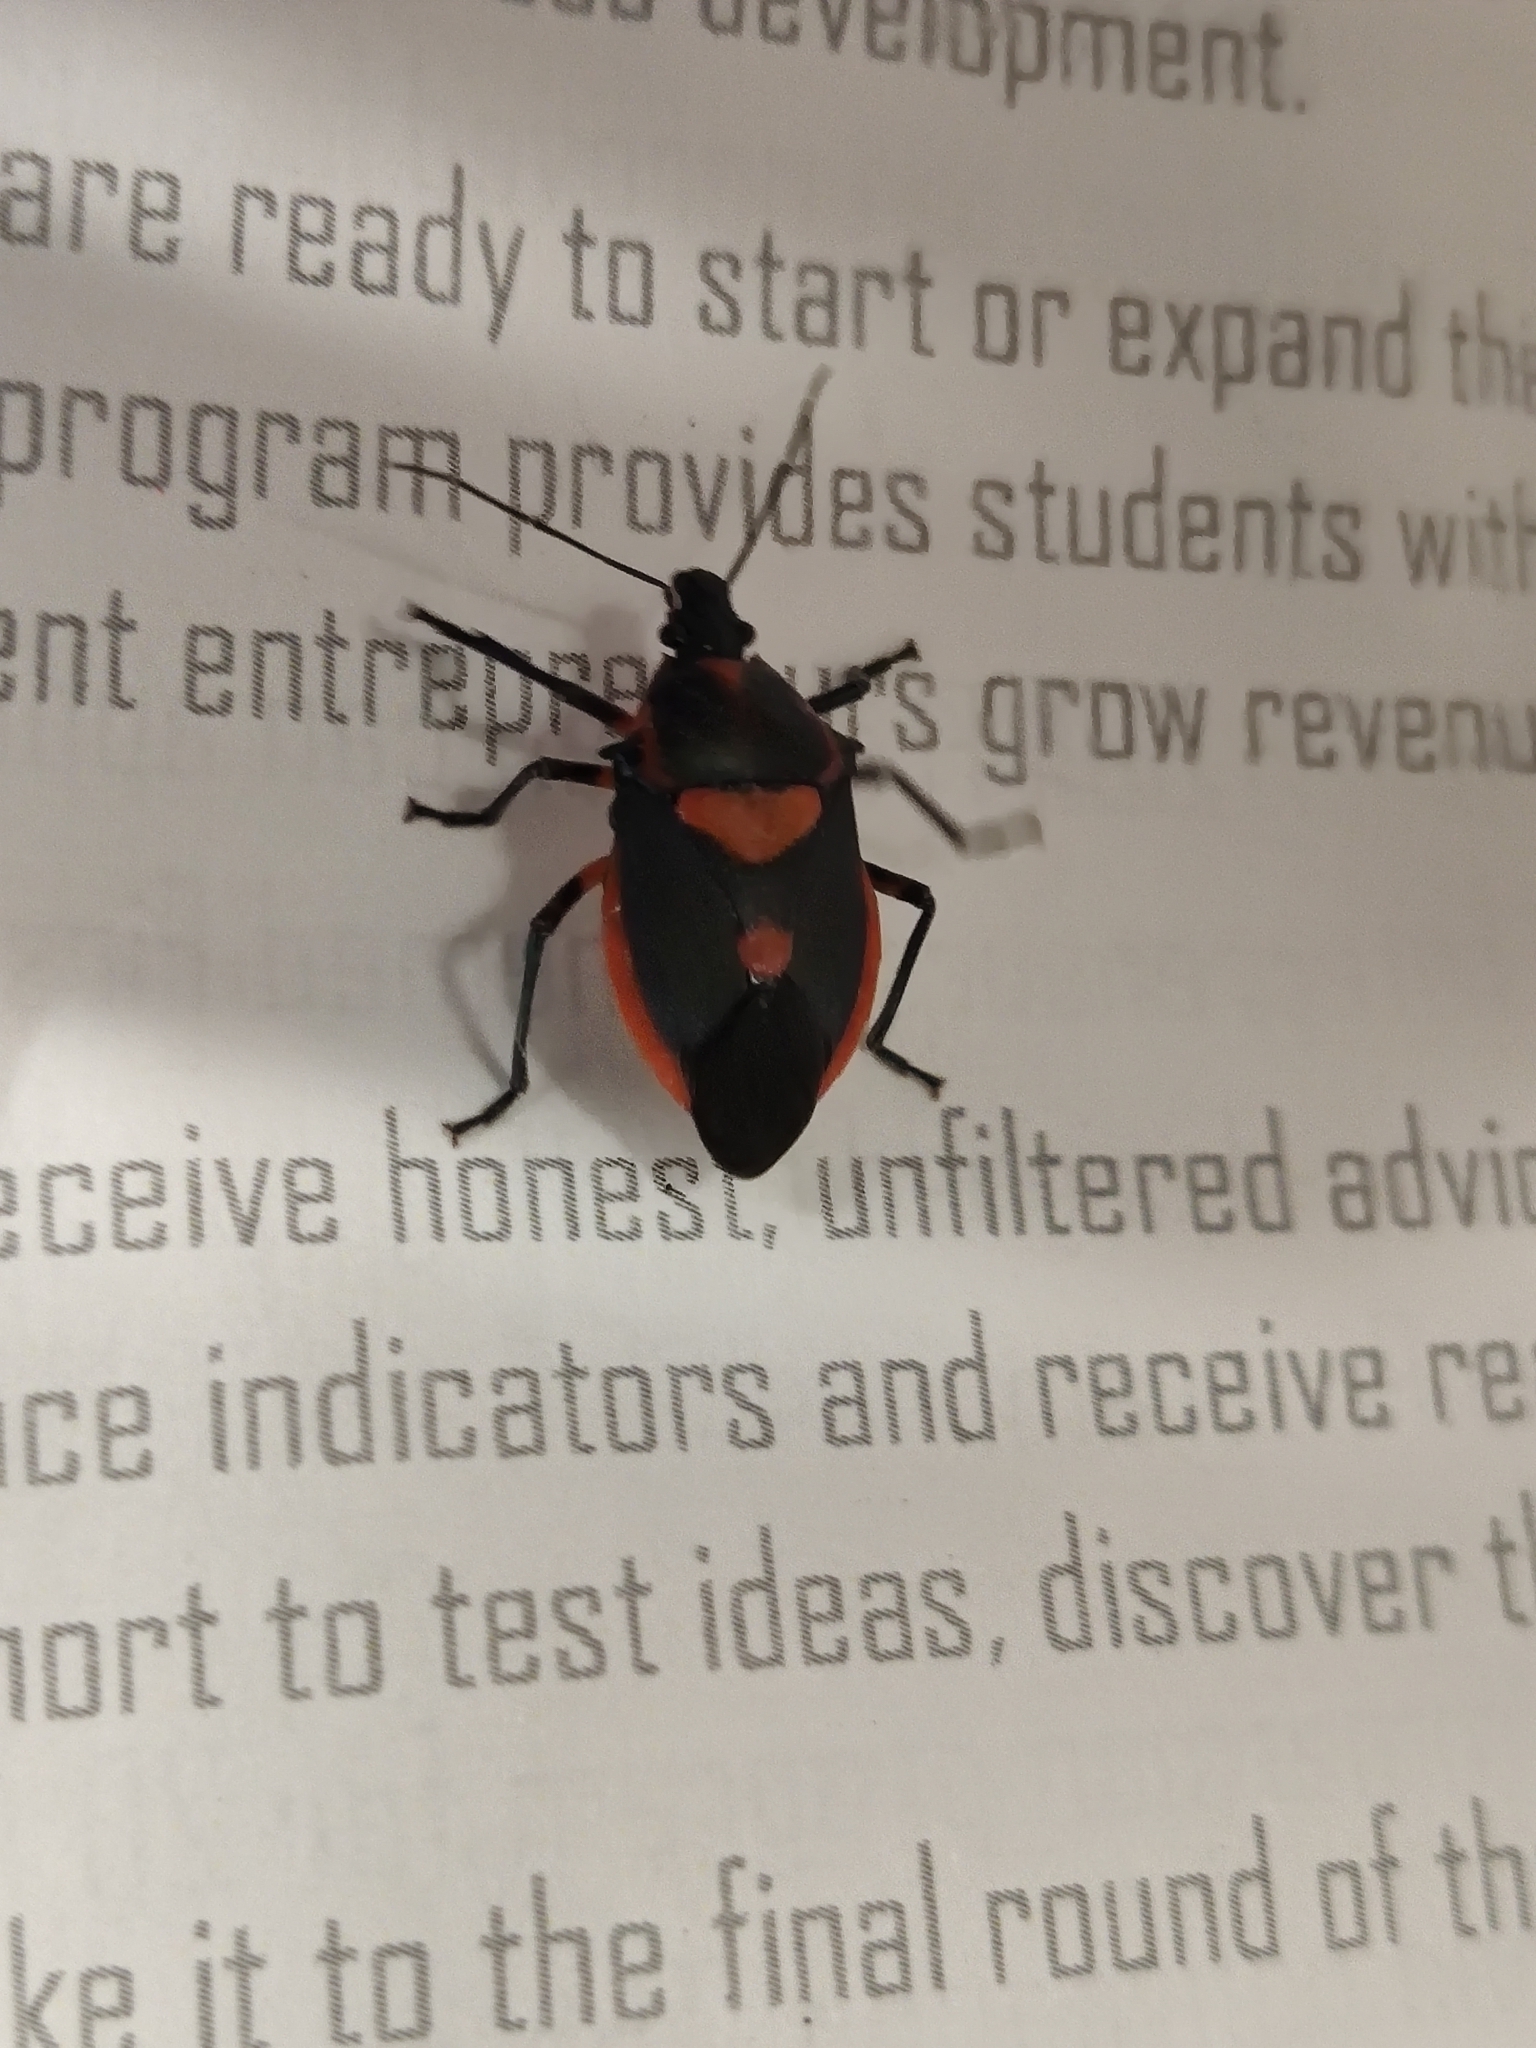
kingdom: Animalia
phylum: Arthropoda
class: Insecta
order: Hemiptera
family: Pentatomidae
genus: Euthyrhynchus
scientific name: Euthyrhynchus floridanus
